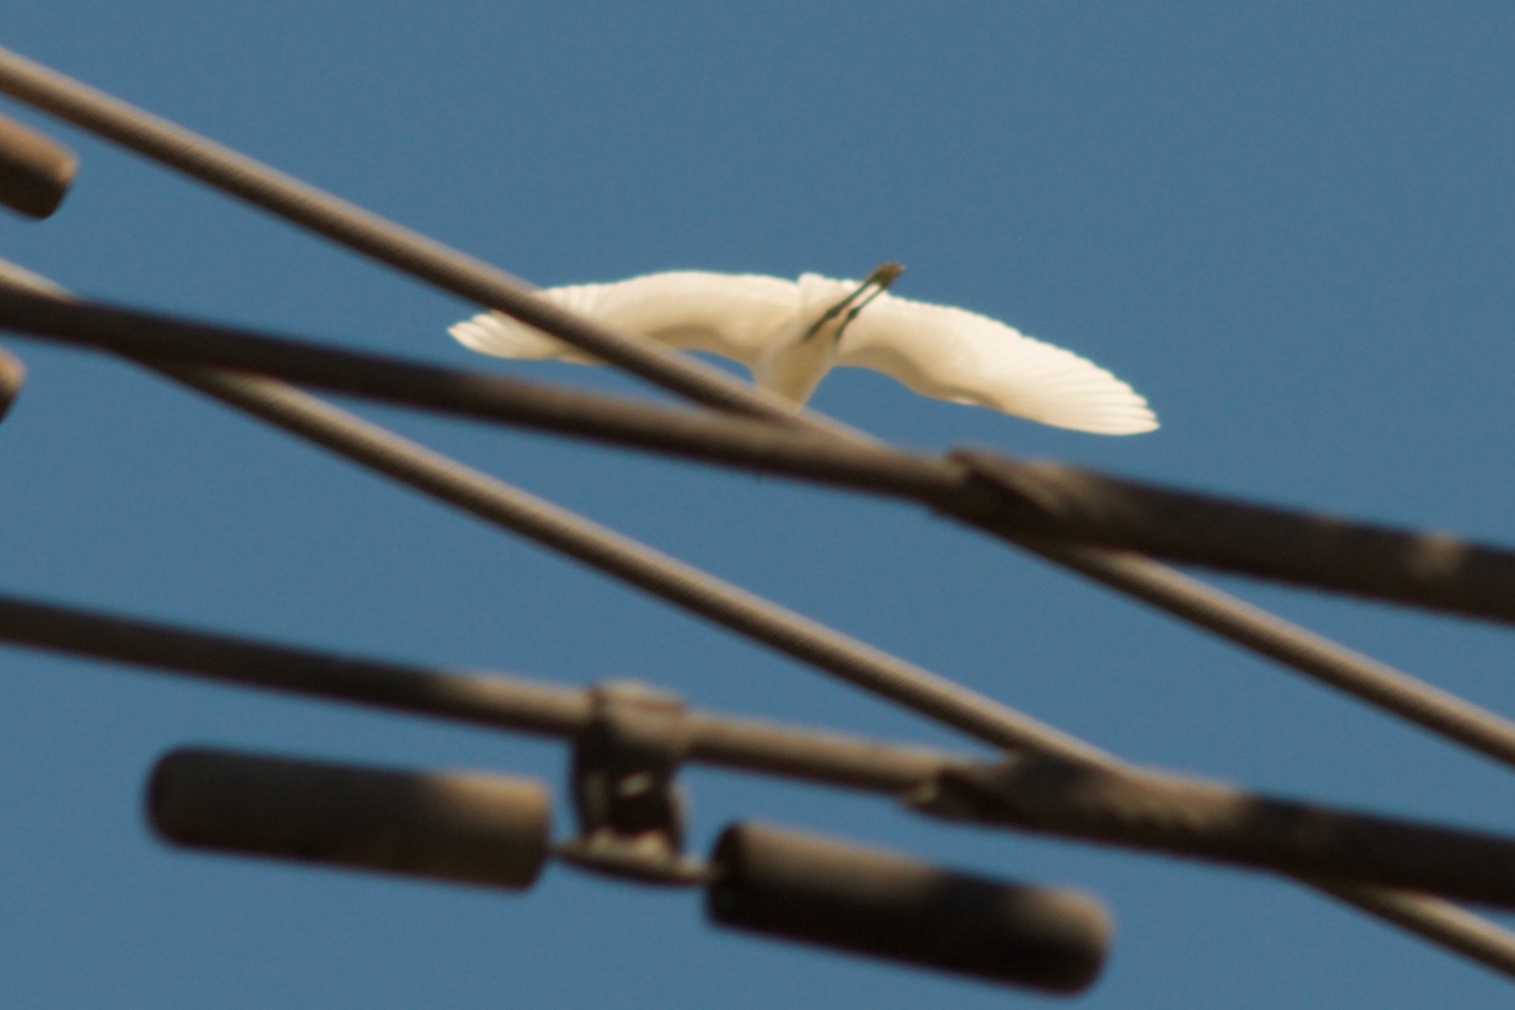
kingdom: Animalia
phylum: Chordata
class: Aves
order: Pelecaniformes
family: Ardeidae
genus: Egretta
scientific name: Egretta thula
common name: Snowy egret
